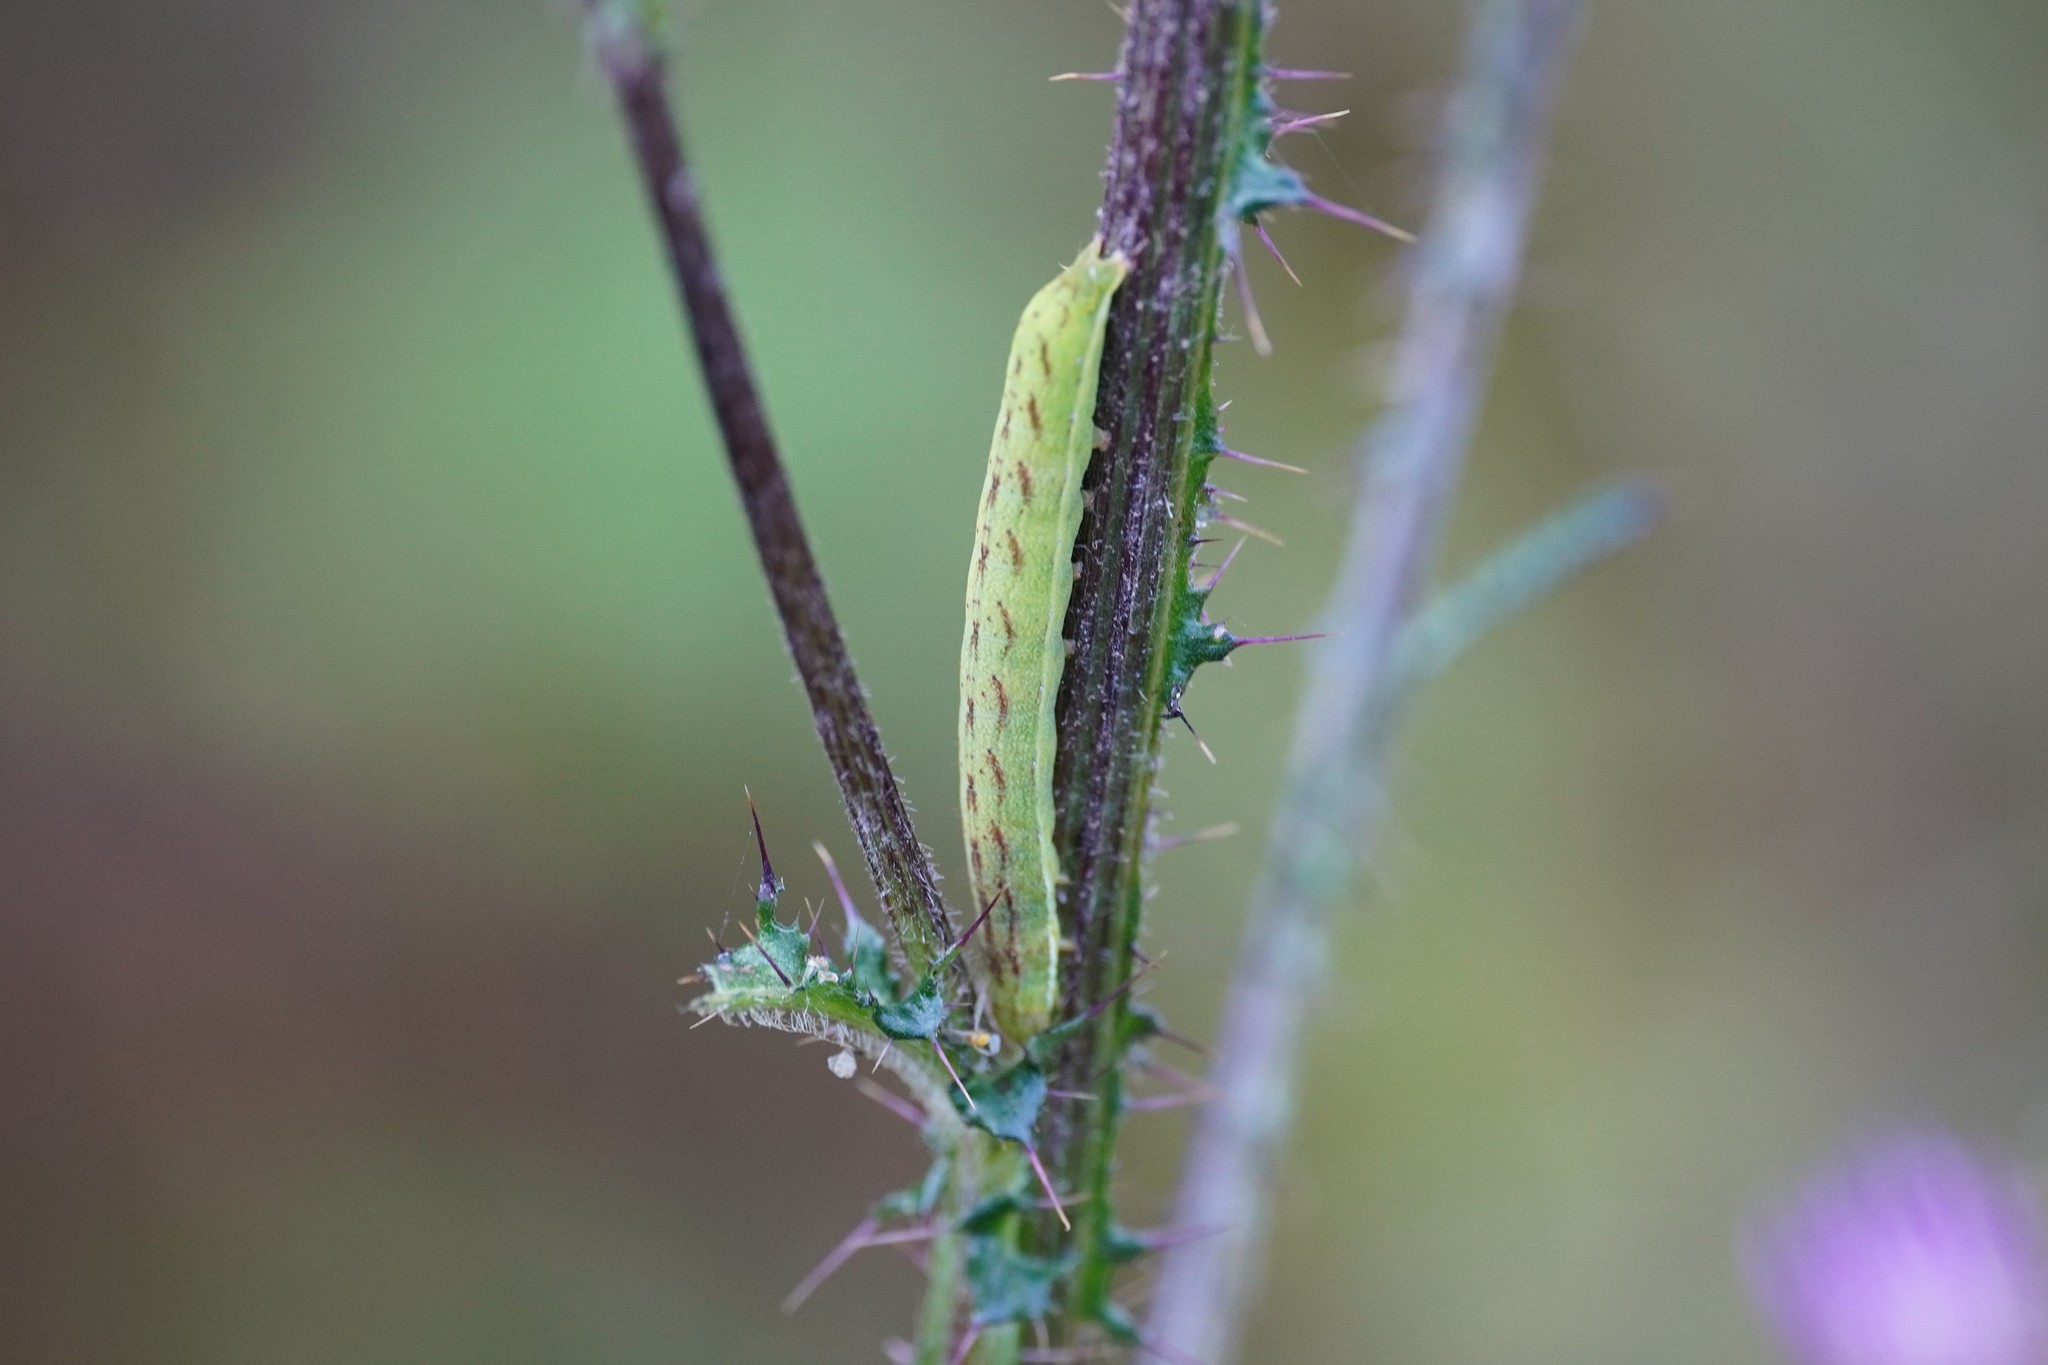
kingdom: Animalia
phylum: Arthropoda
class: Insecta
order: Lepidoptera
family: Noctuidae
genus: Lacanobia
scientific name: Lacanobia contigua
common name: Beautiful brocade
